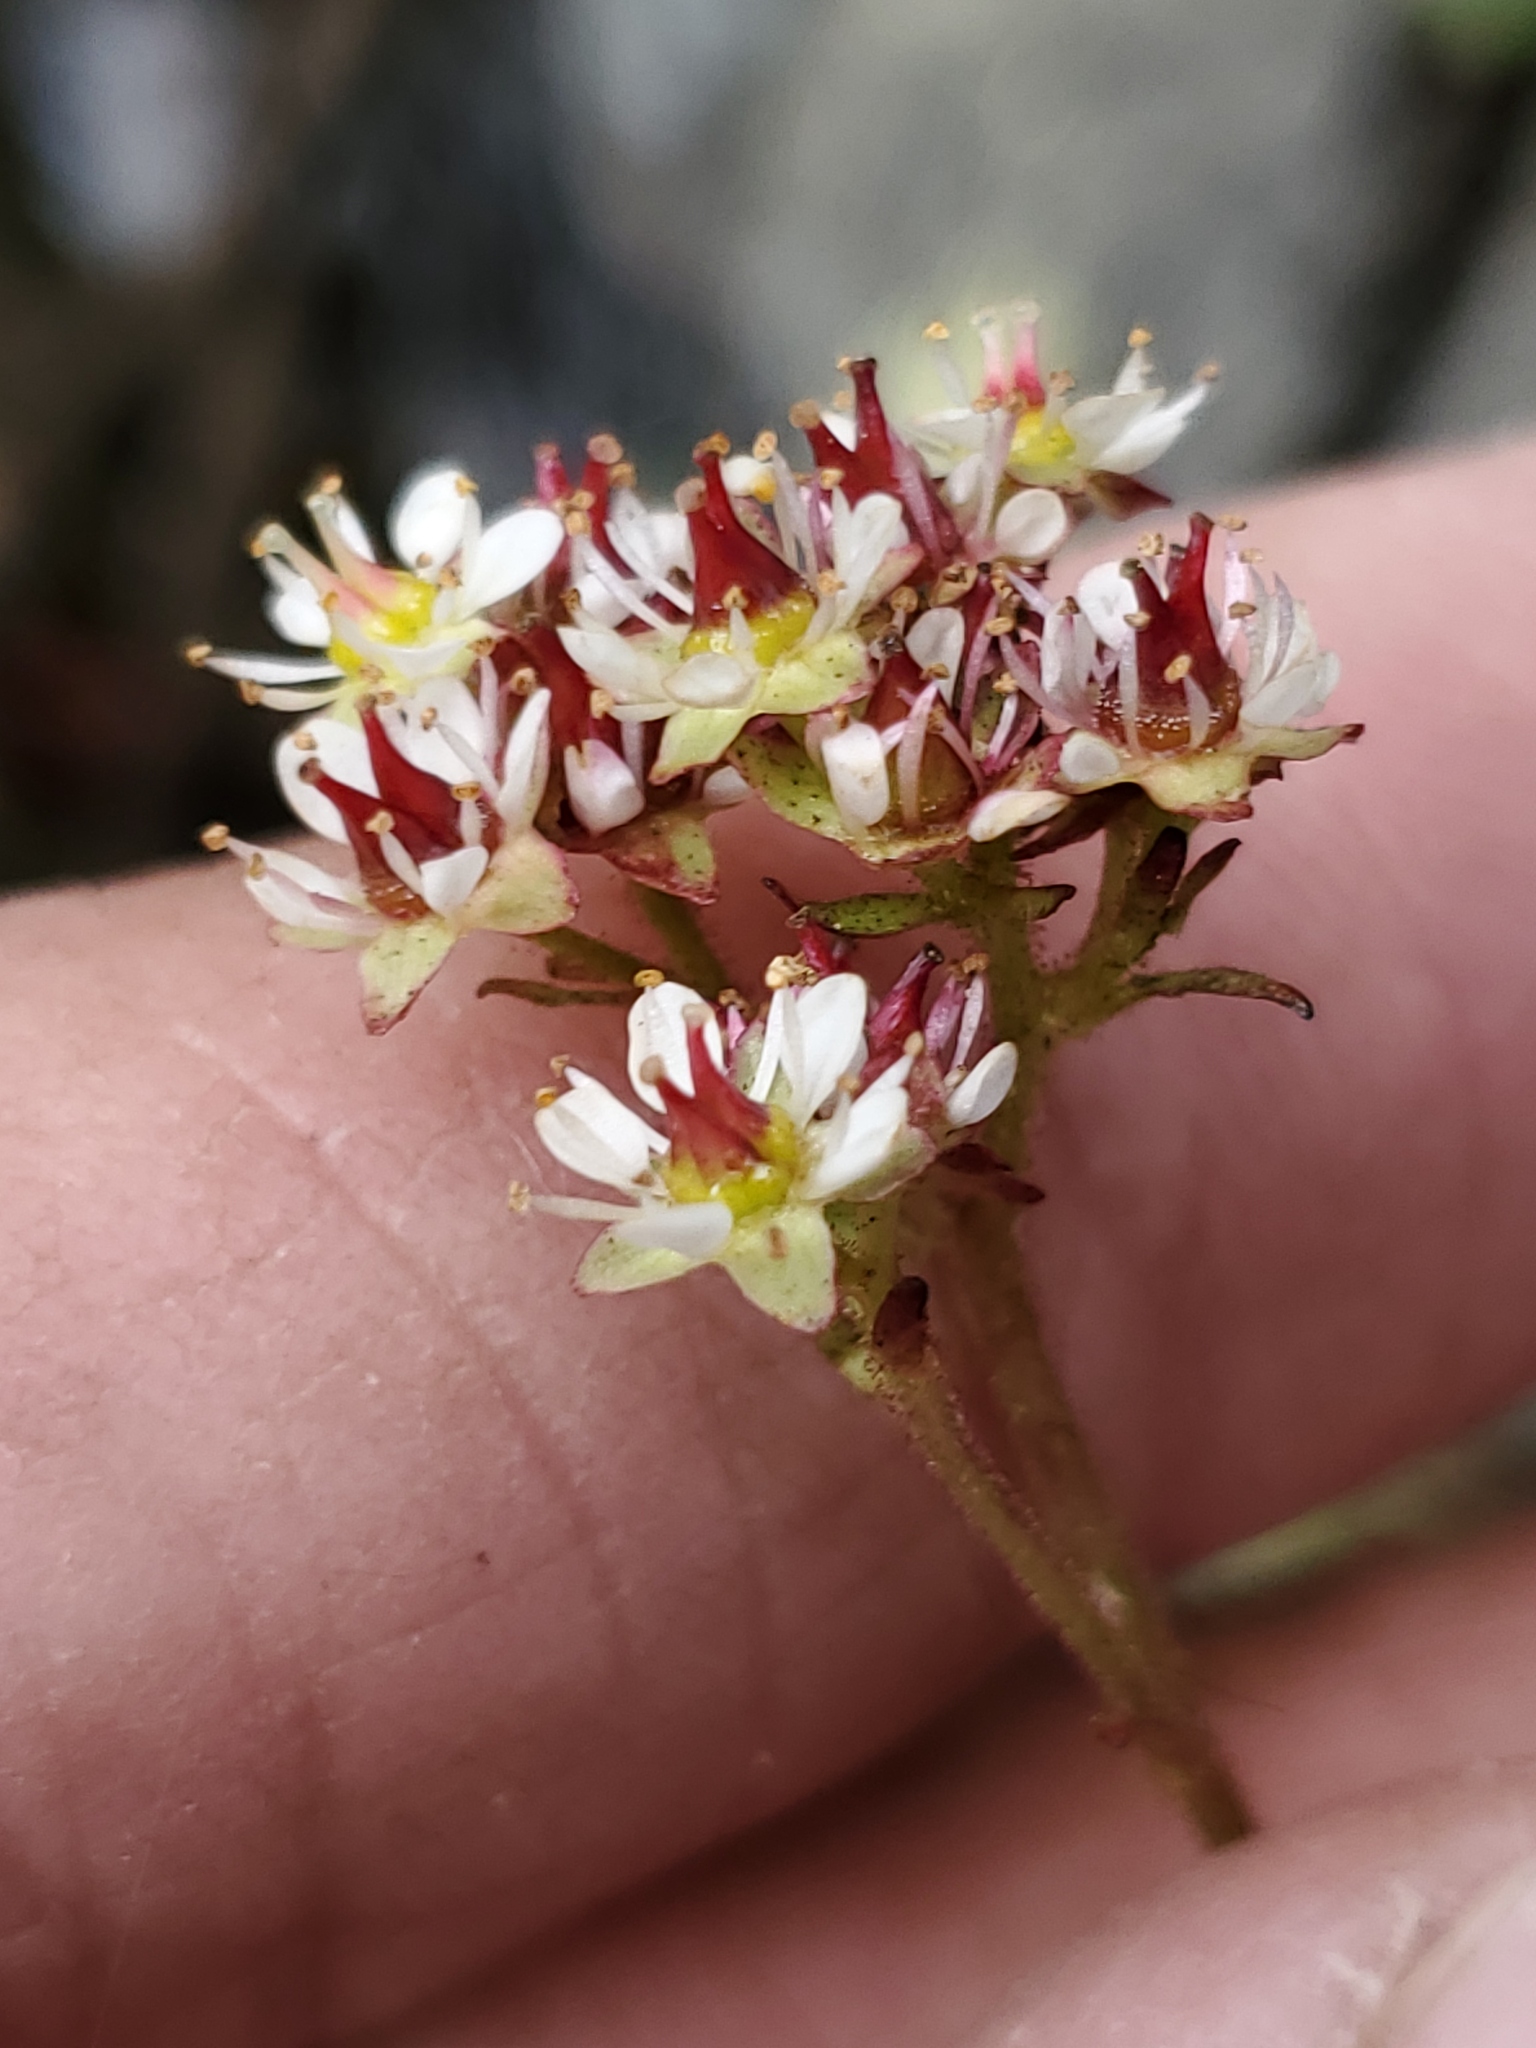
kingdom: Plantae
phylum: Tracheophyta
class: Magnoliopsida
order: Saxifragales
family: Saxifragaceae
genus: Micranthes
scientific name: Micranthes occidentalis
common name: Alberta saxifrage
